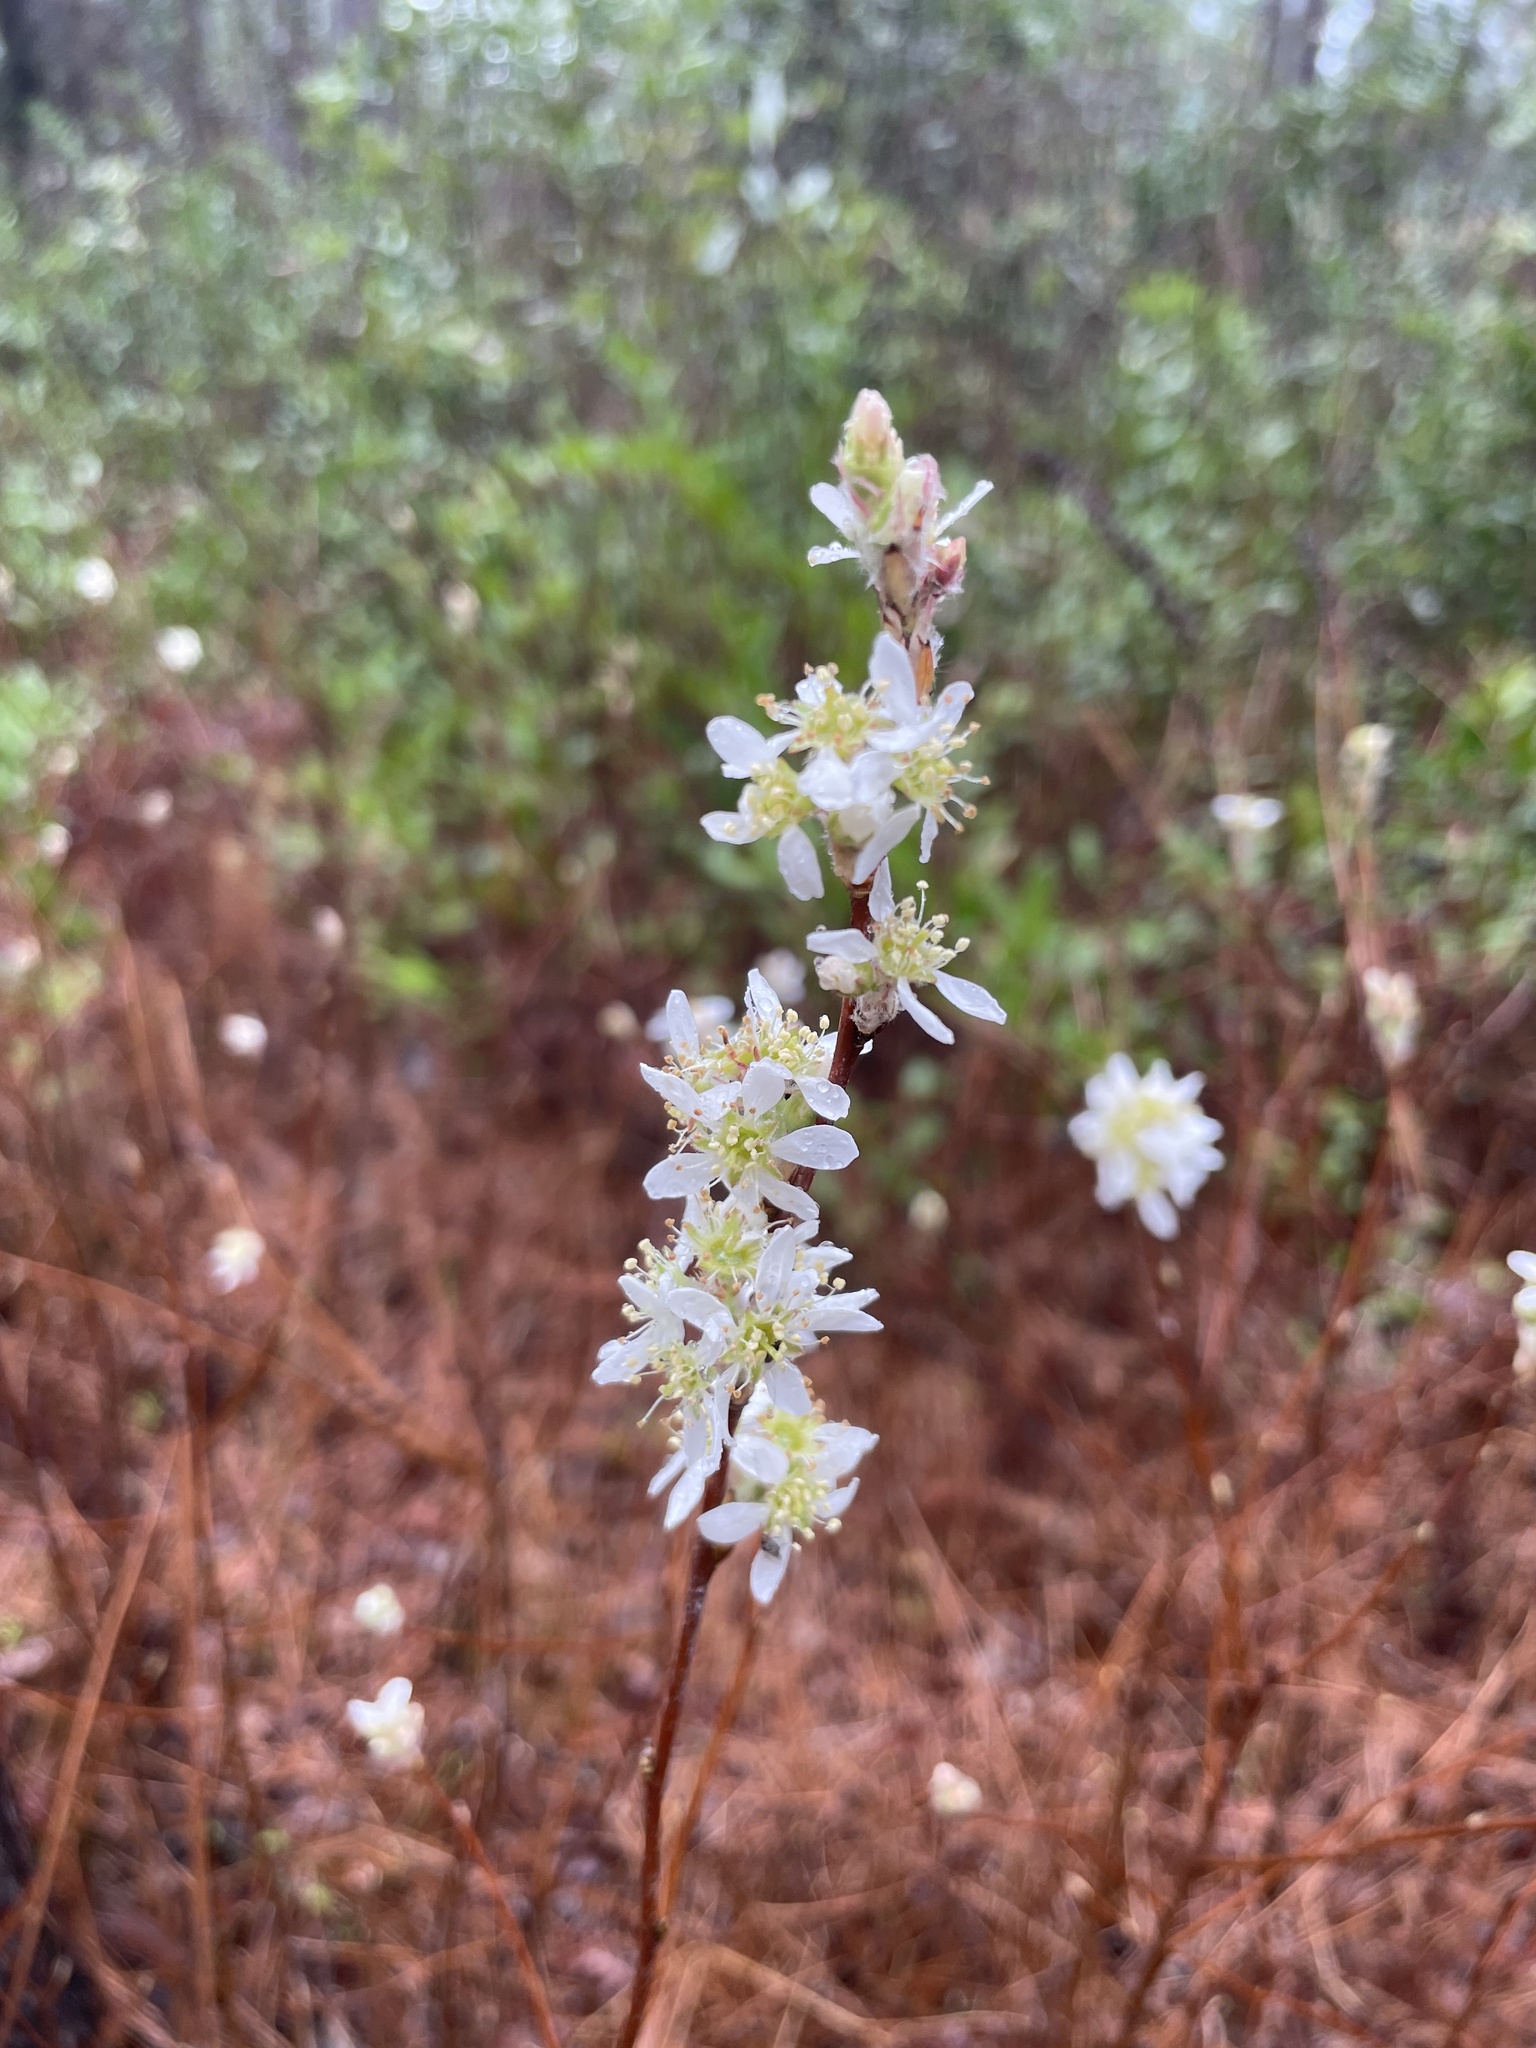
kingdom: Plantae
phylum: Tracheophyta
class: Magnoliopsida
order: Rosales
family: Rosaceae
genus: Amelanchier
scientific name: Amelanchier obovalis
